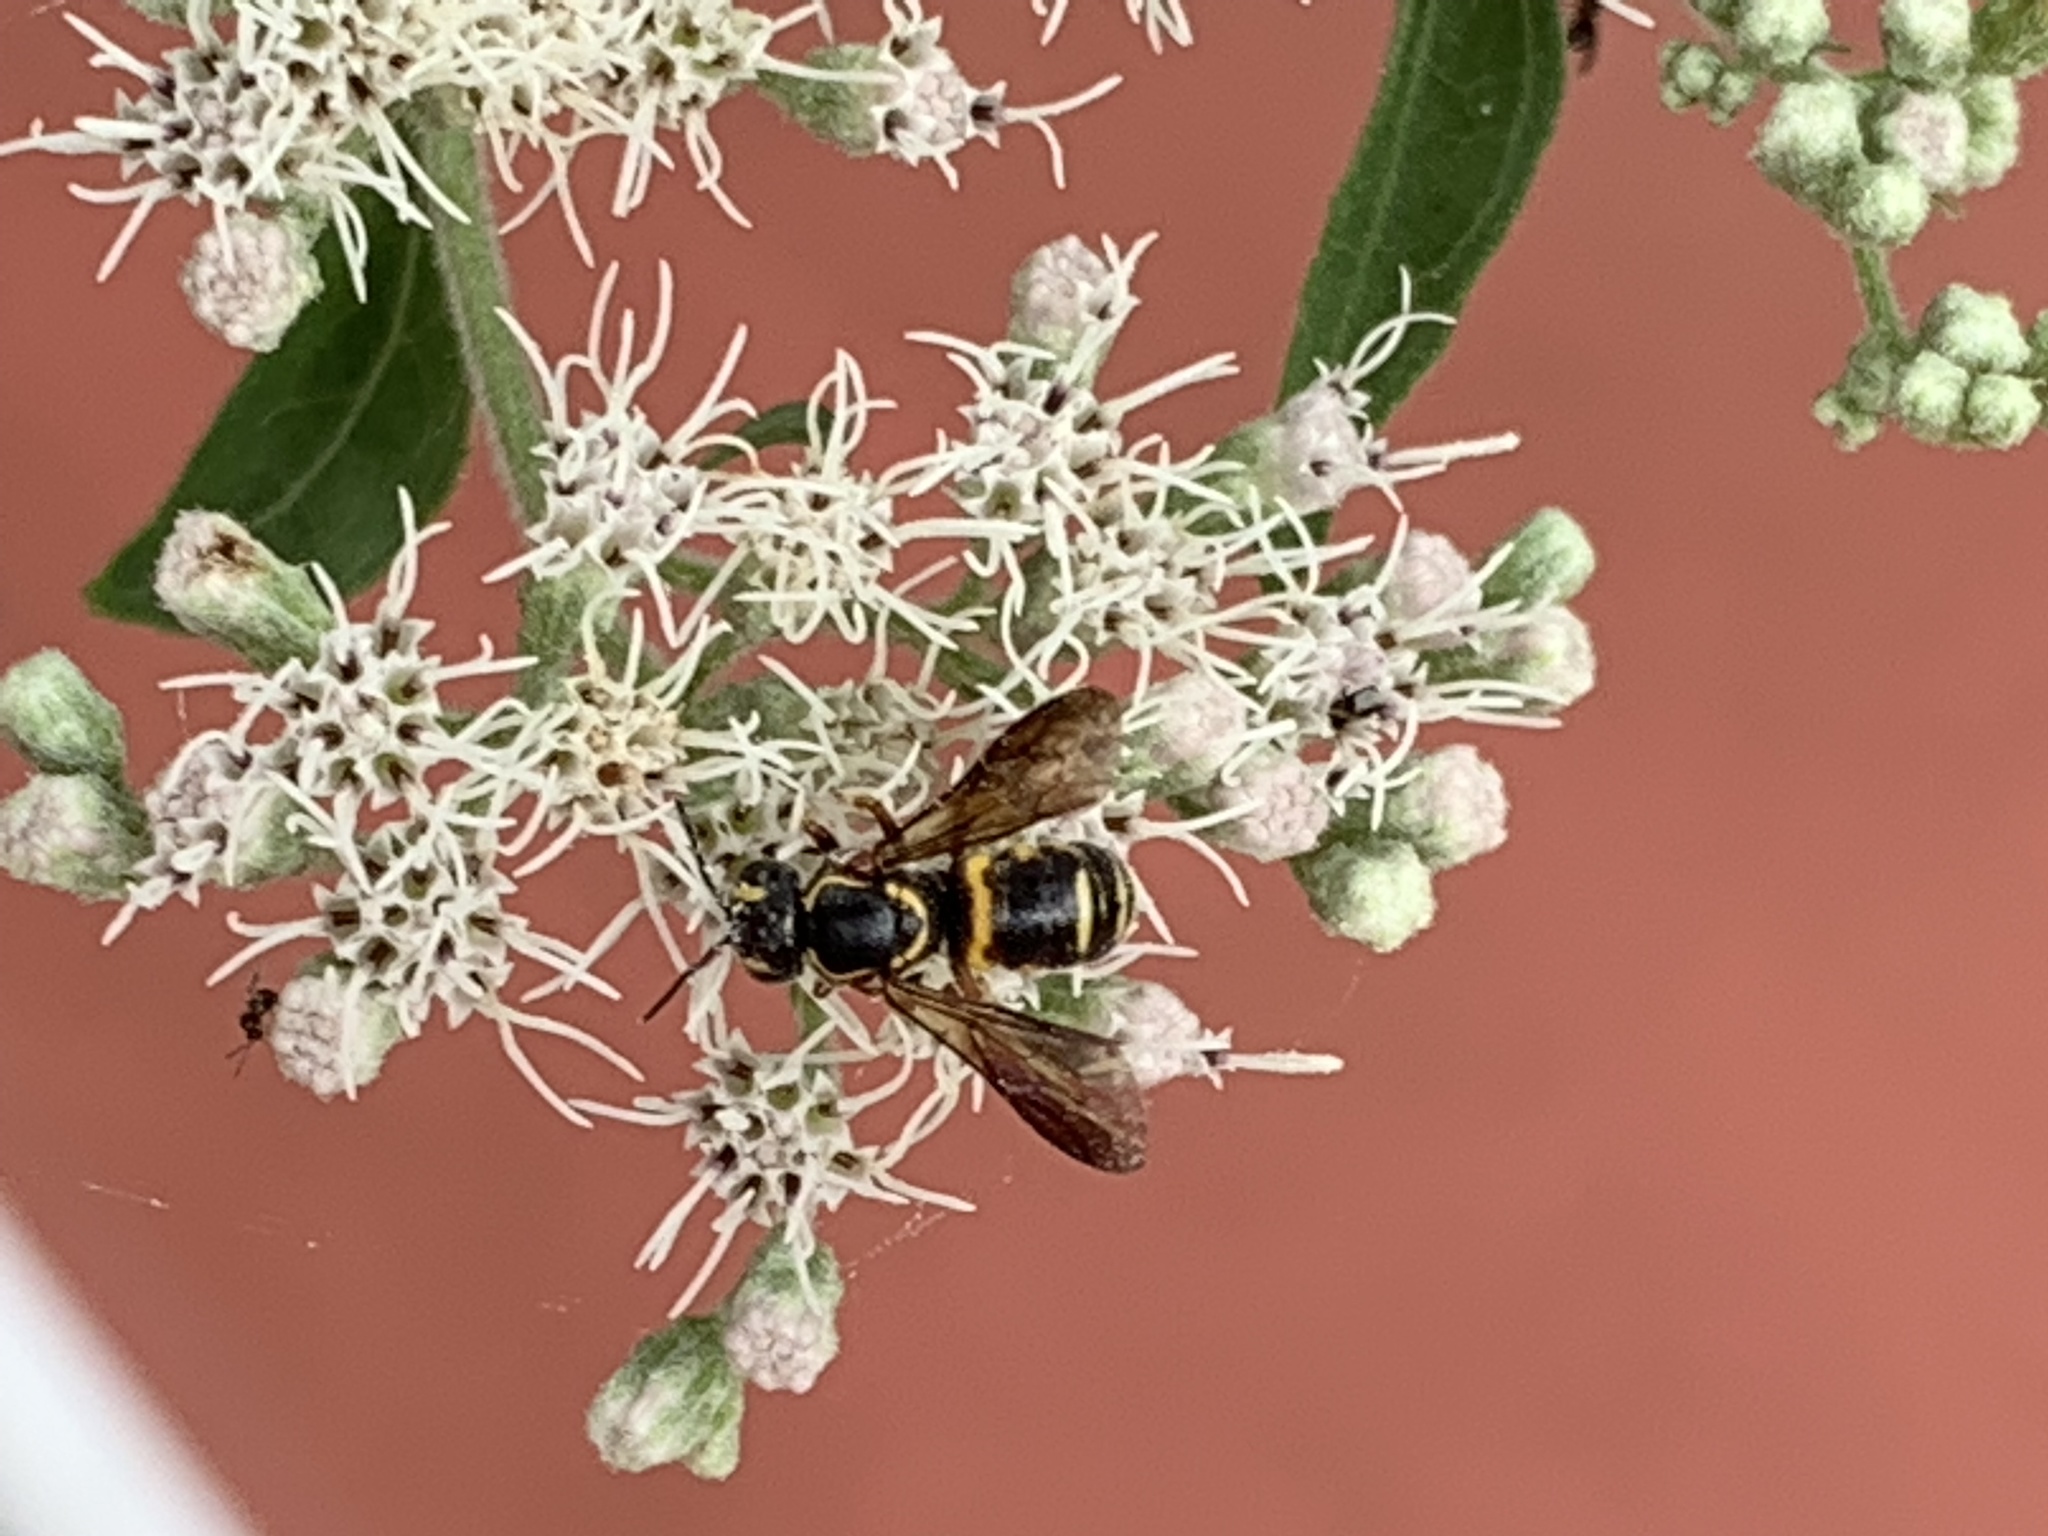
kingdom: Animalia
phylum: Arthropoda
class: Insecta
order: Hymenoptera
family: Megachilidae
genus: Stelis
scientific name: Stelis louisae
